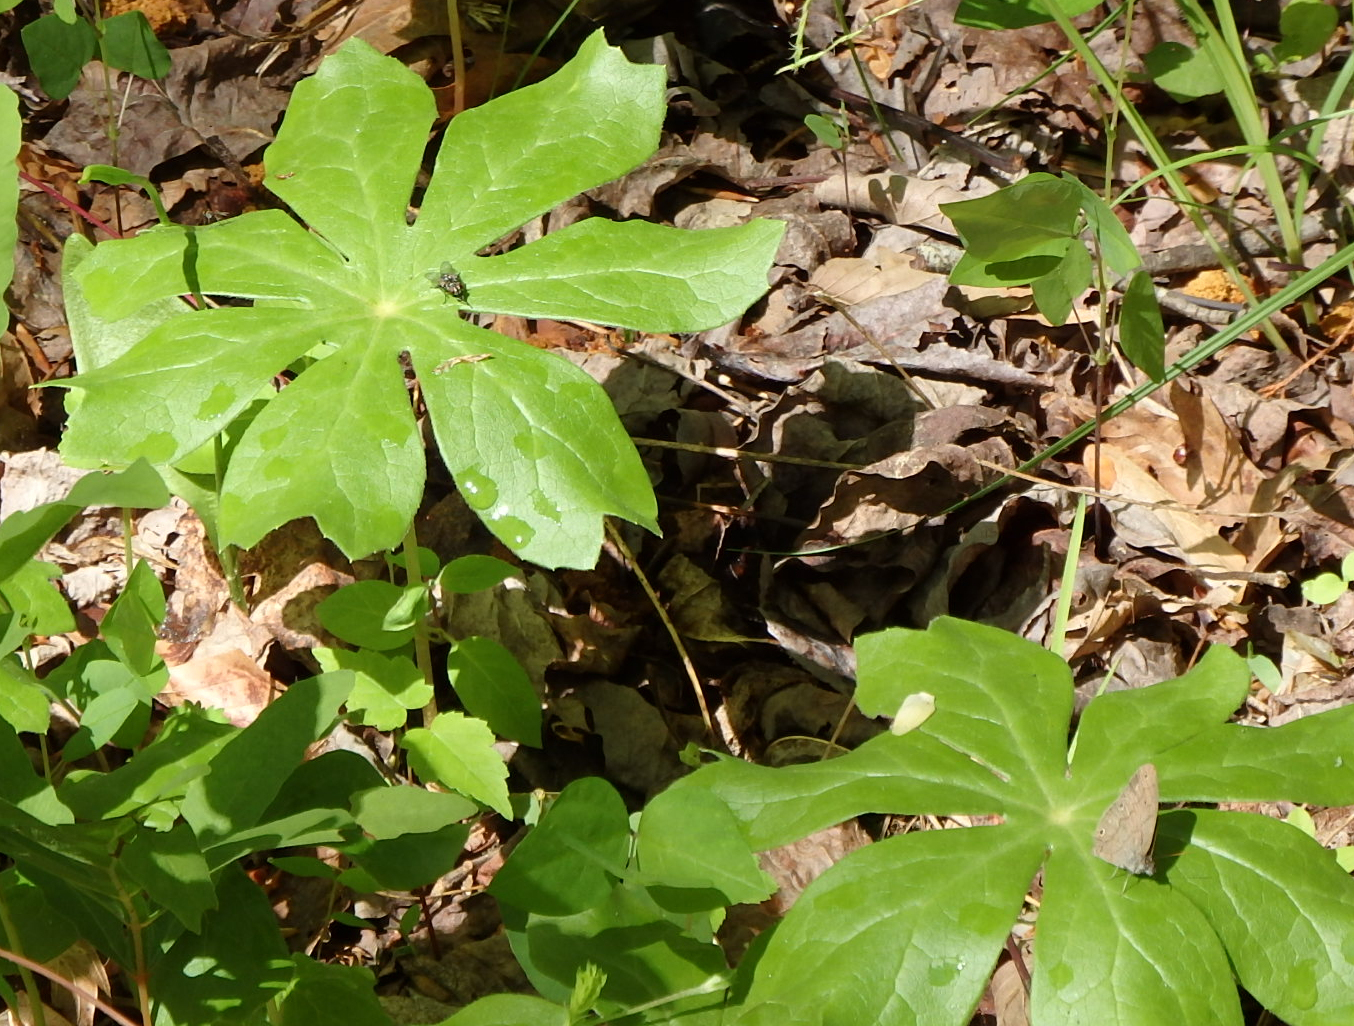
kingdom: Plantae
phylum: Tracheophyta
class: Magnoliopsida
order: Ranunculales
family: Berberidaceae
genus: Podophyllum
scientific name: Podophyllum peltatum
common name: Wild mandrake
